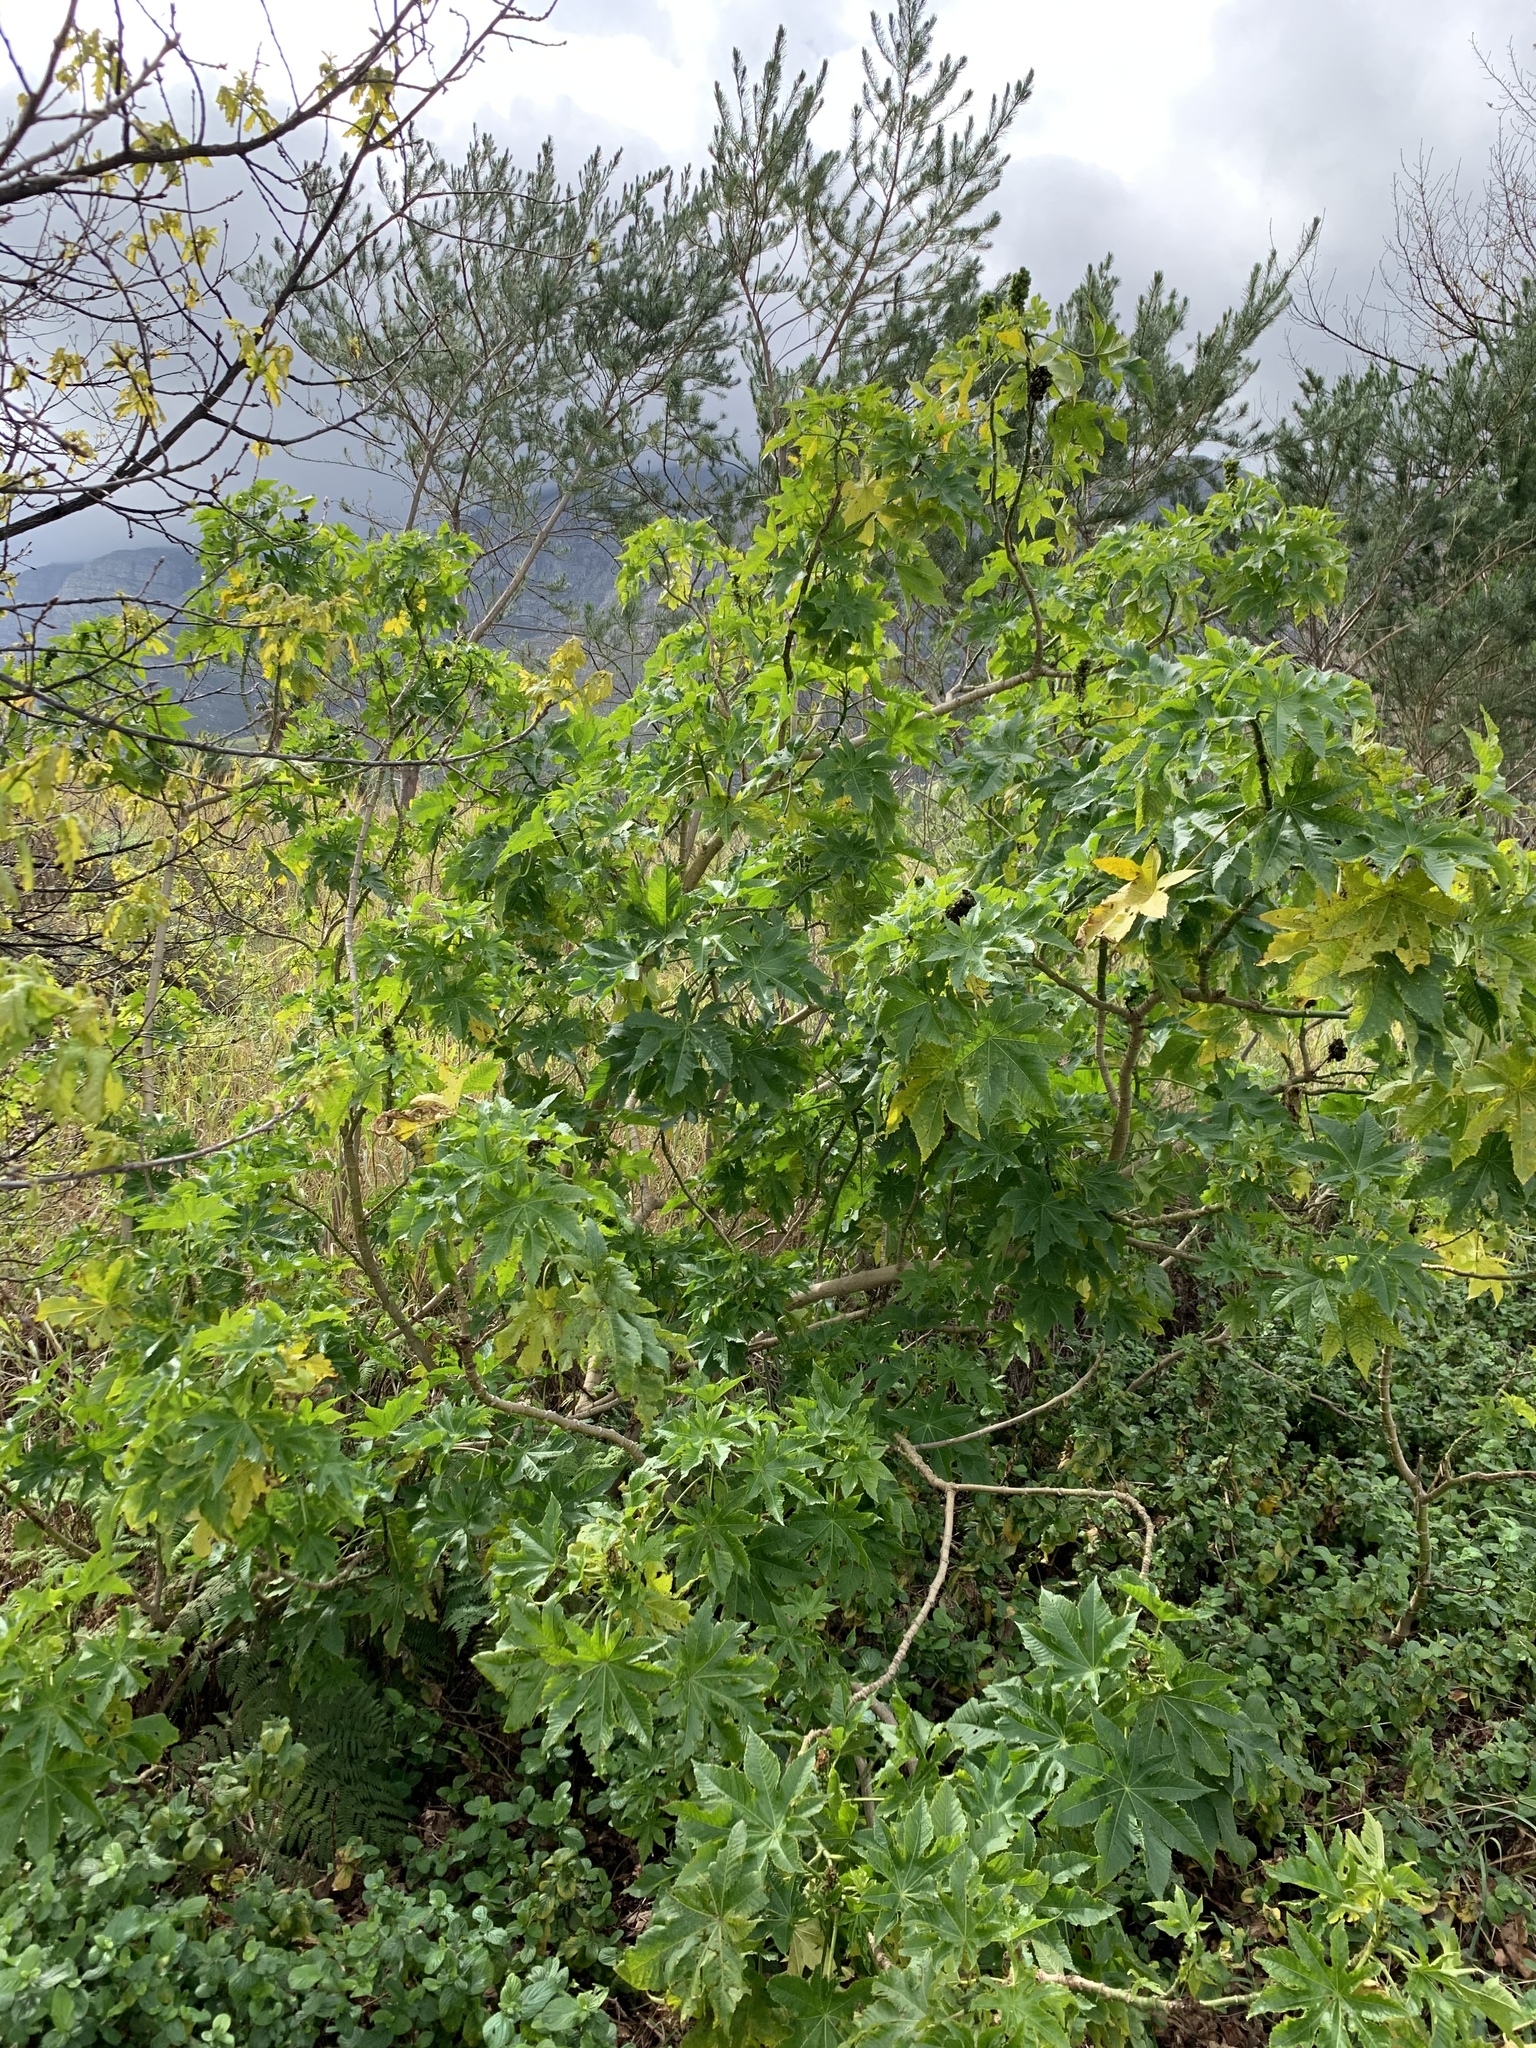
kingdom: Plantae
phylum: Tracheophyta
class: Magnoliopsida
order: Malpighiales
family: Euphorbiaceae
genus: Ricinus
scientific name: Ricinus communis
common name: Castor-oil-plant
